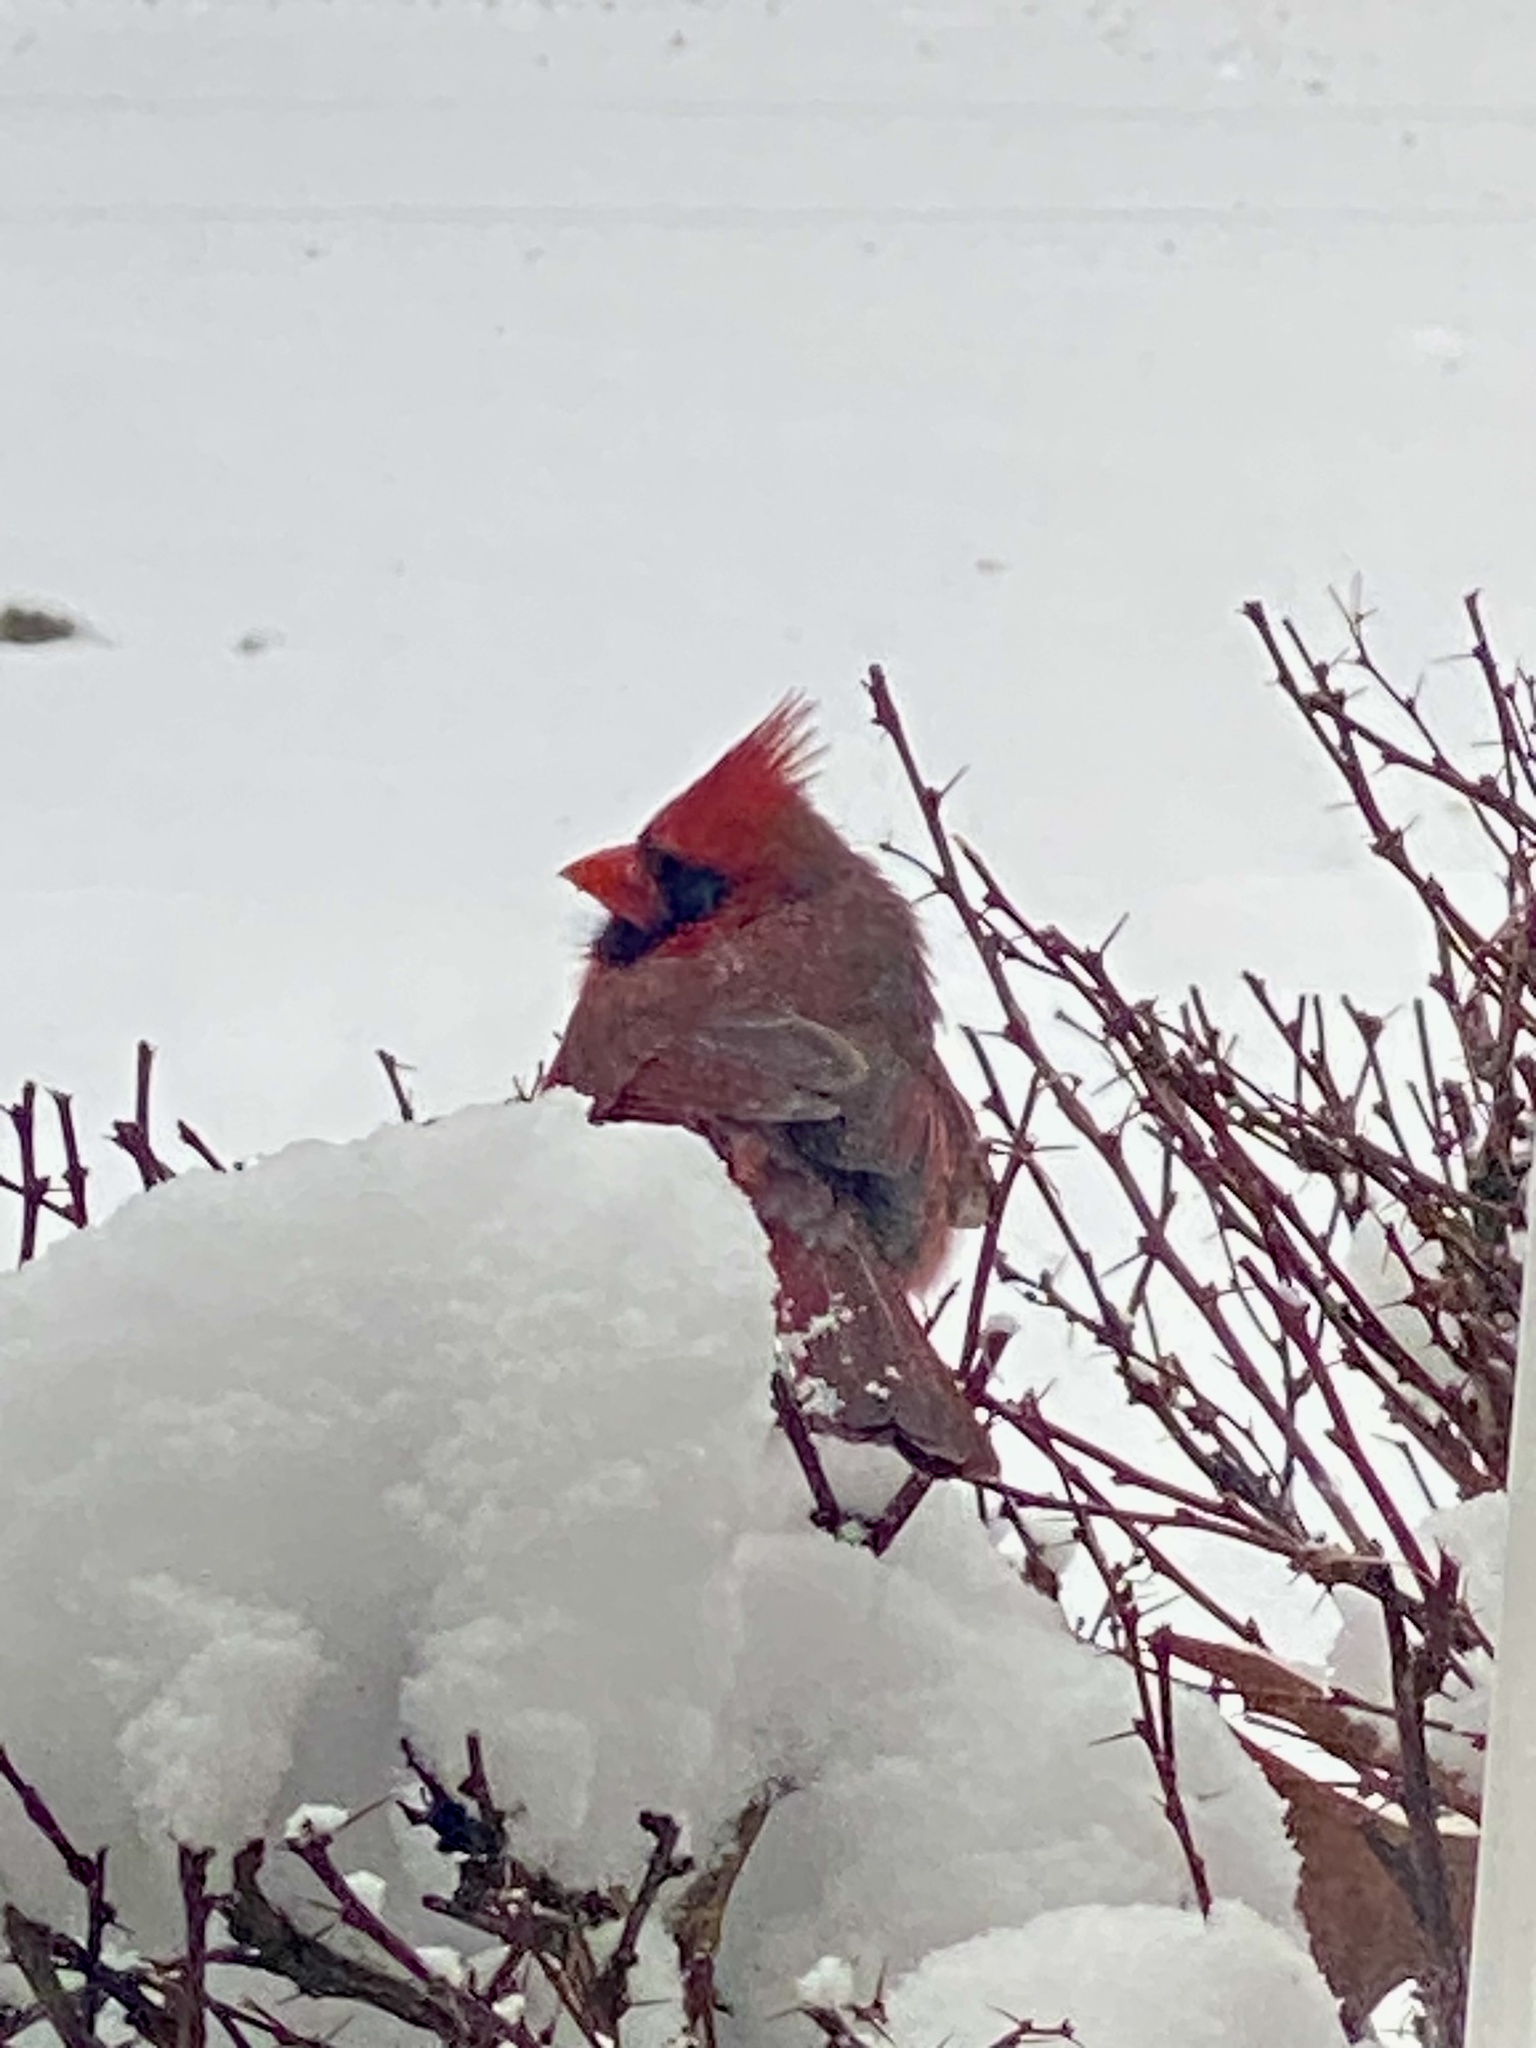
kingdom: Animalia
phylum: Chordata
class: Aves
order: Passeriformes
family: Cardinalidae
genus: Cardinalis
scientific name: Cardinalis cardinalis
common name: Northern cardinal
